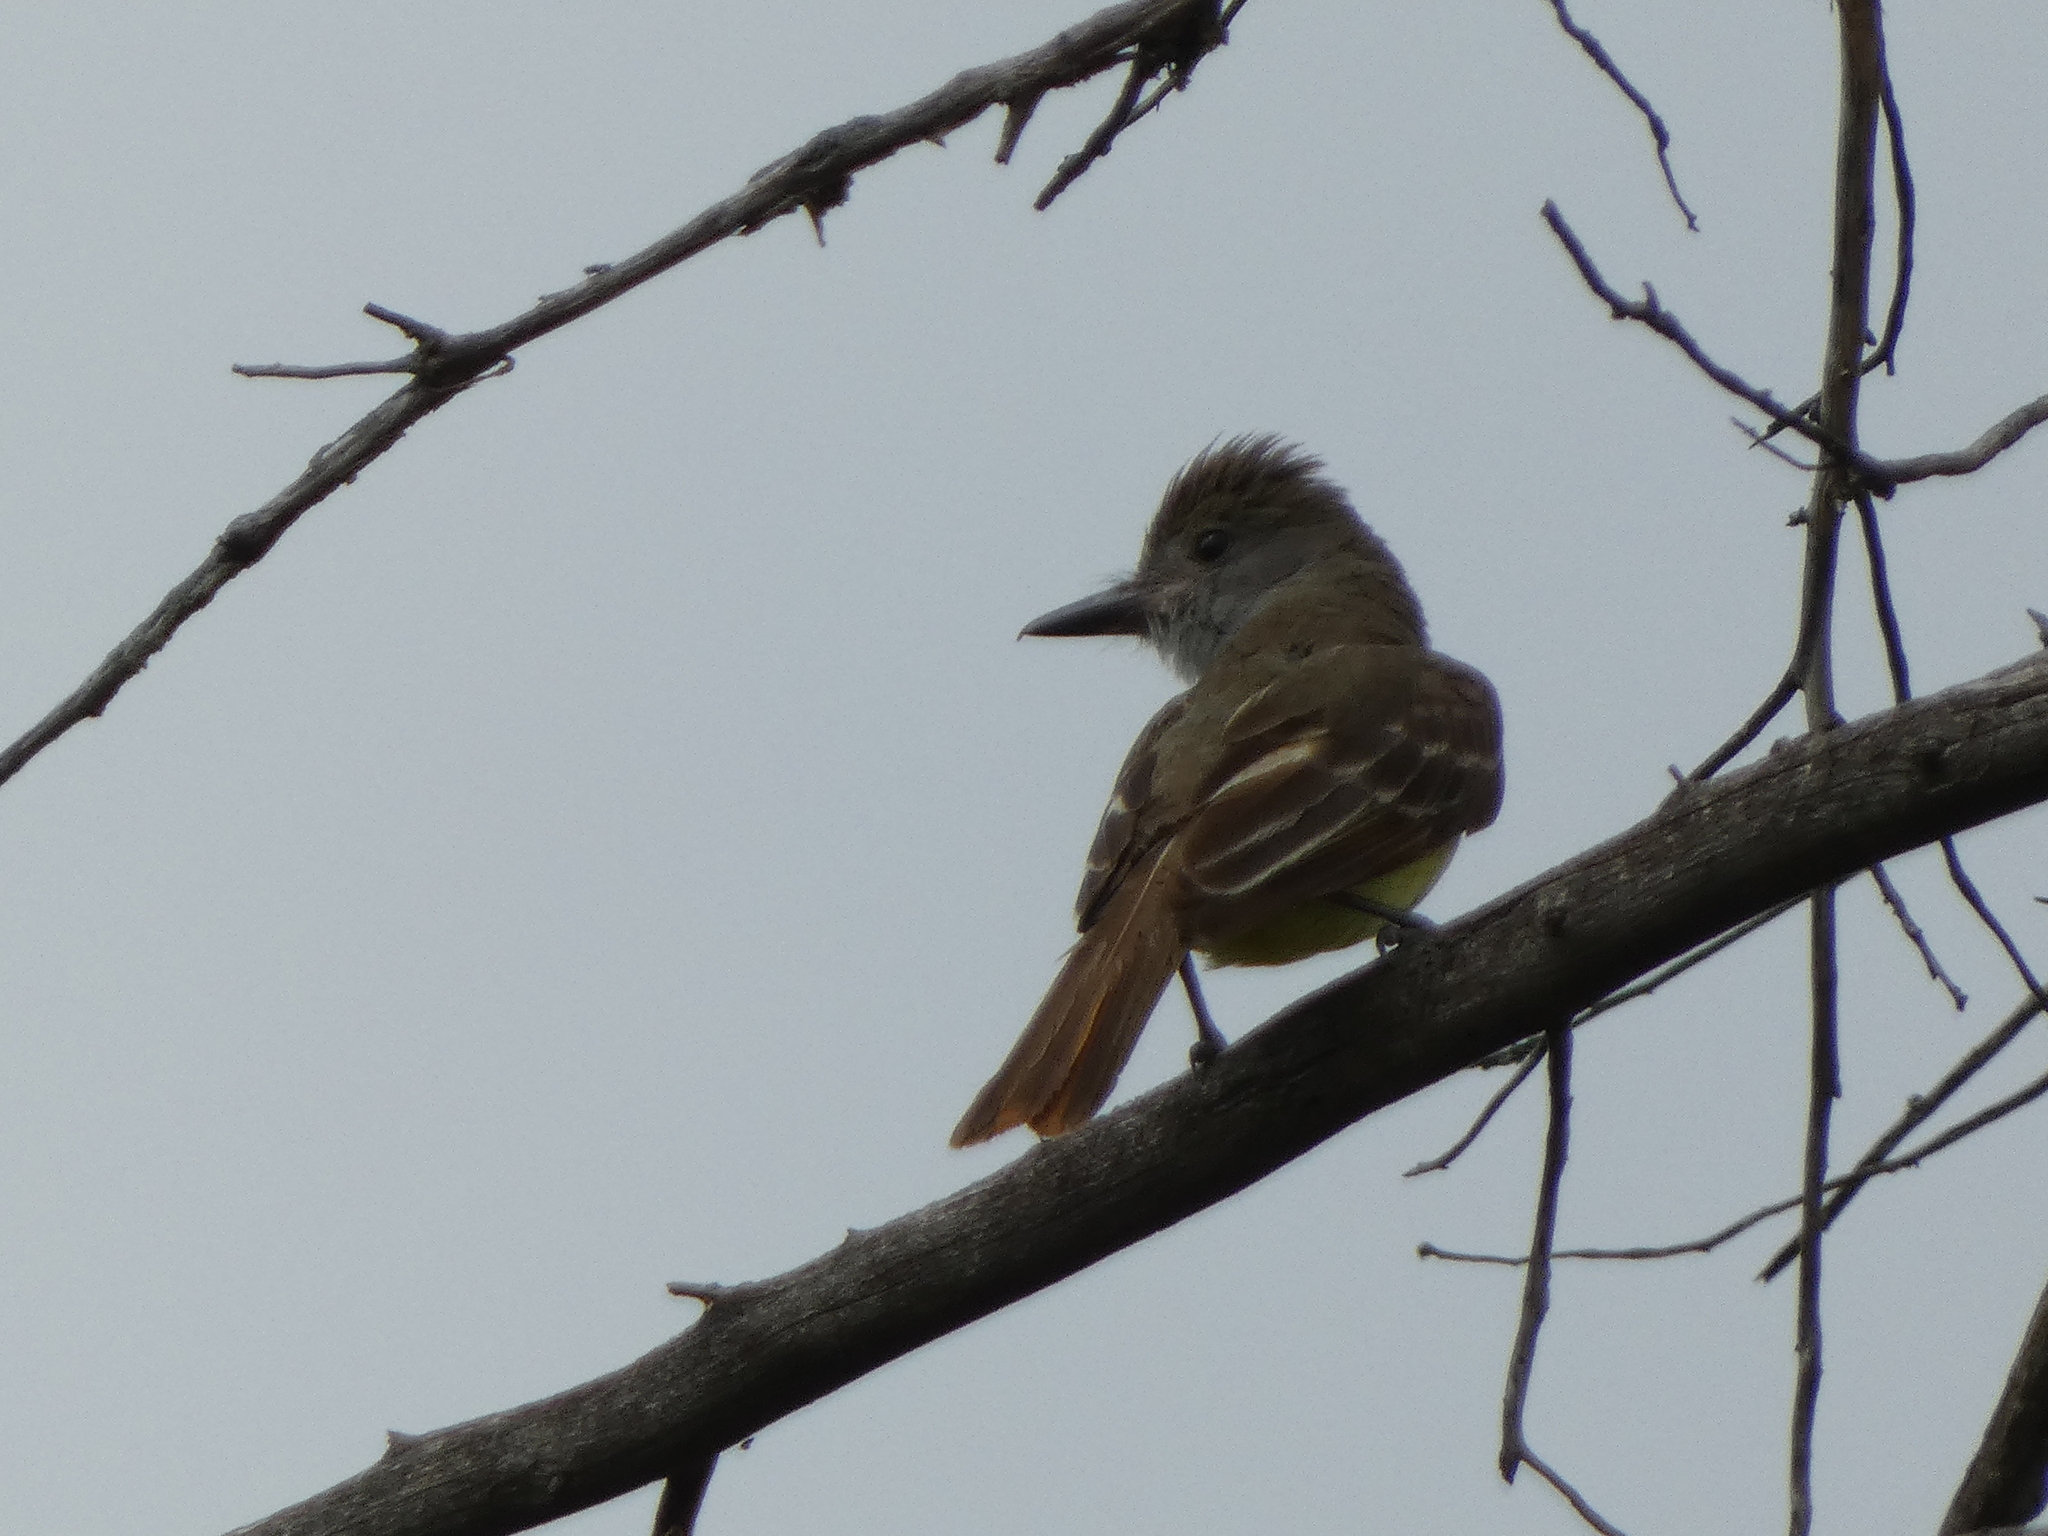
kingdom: Animalia
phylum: Chordata
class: Aves
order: Passeriformes
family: Tyrannidae
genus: Myiarchus
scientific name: Myiarchus crinitus
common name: Great crested flycatcher
